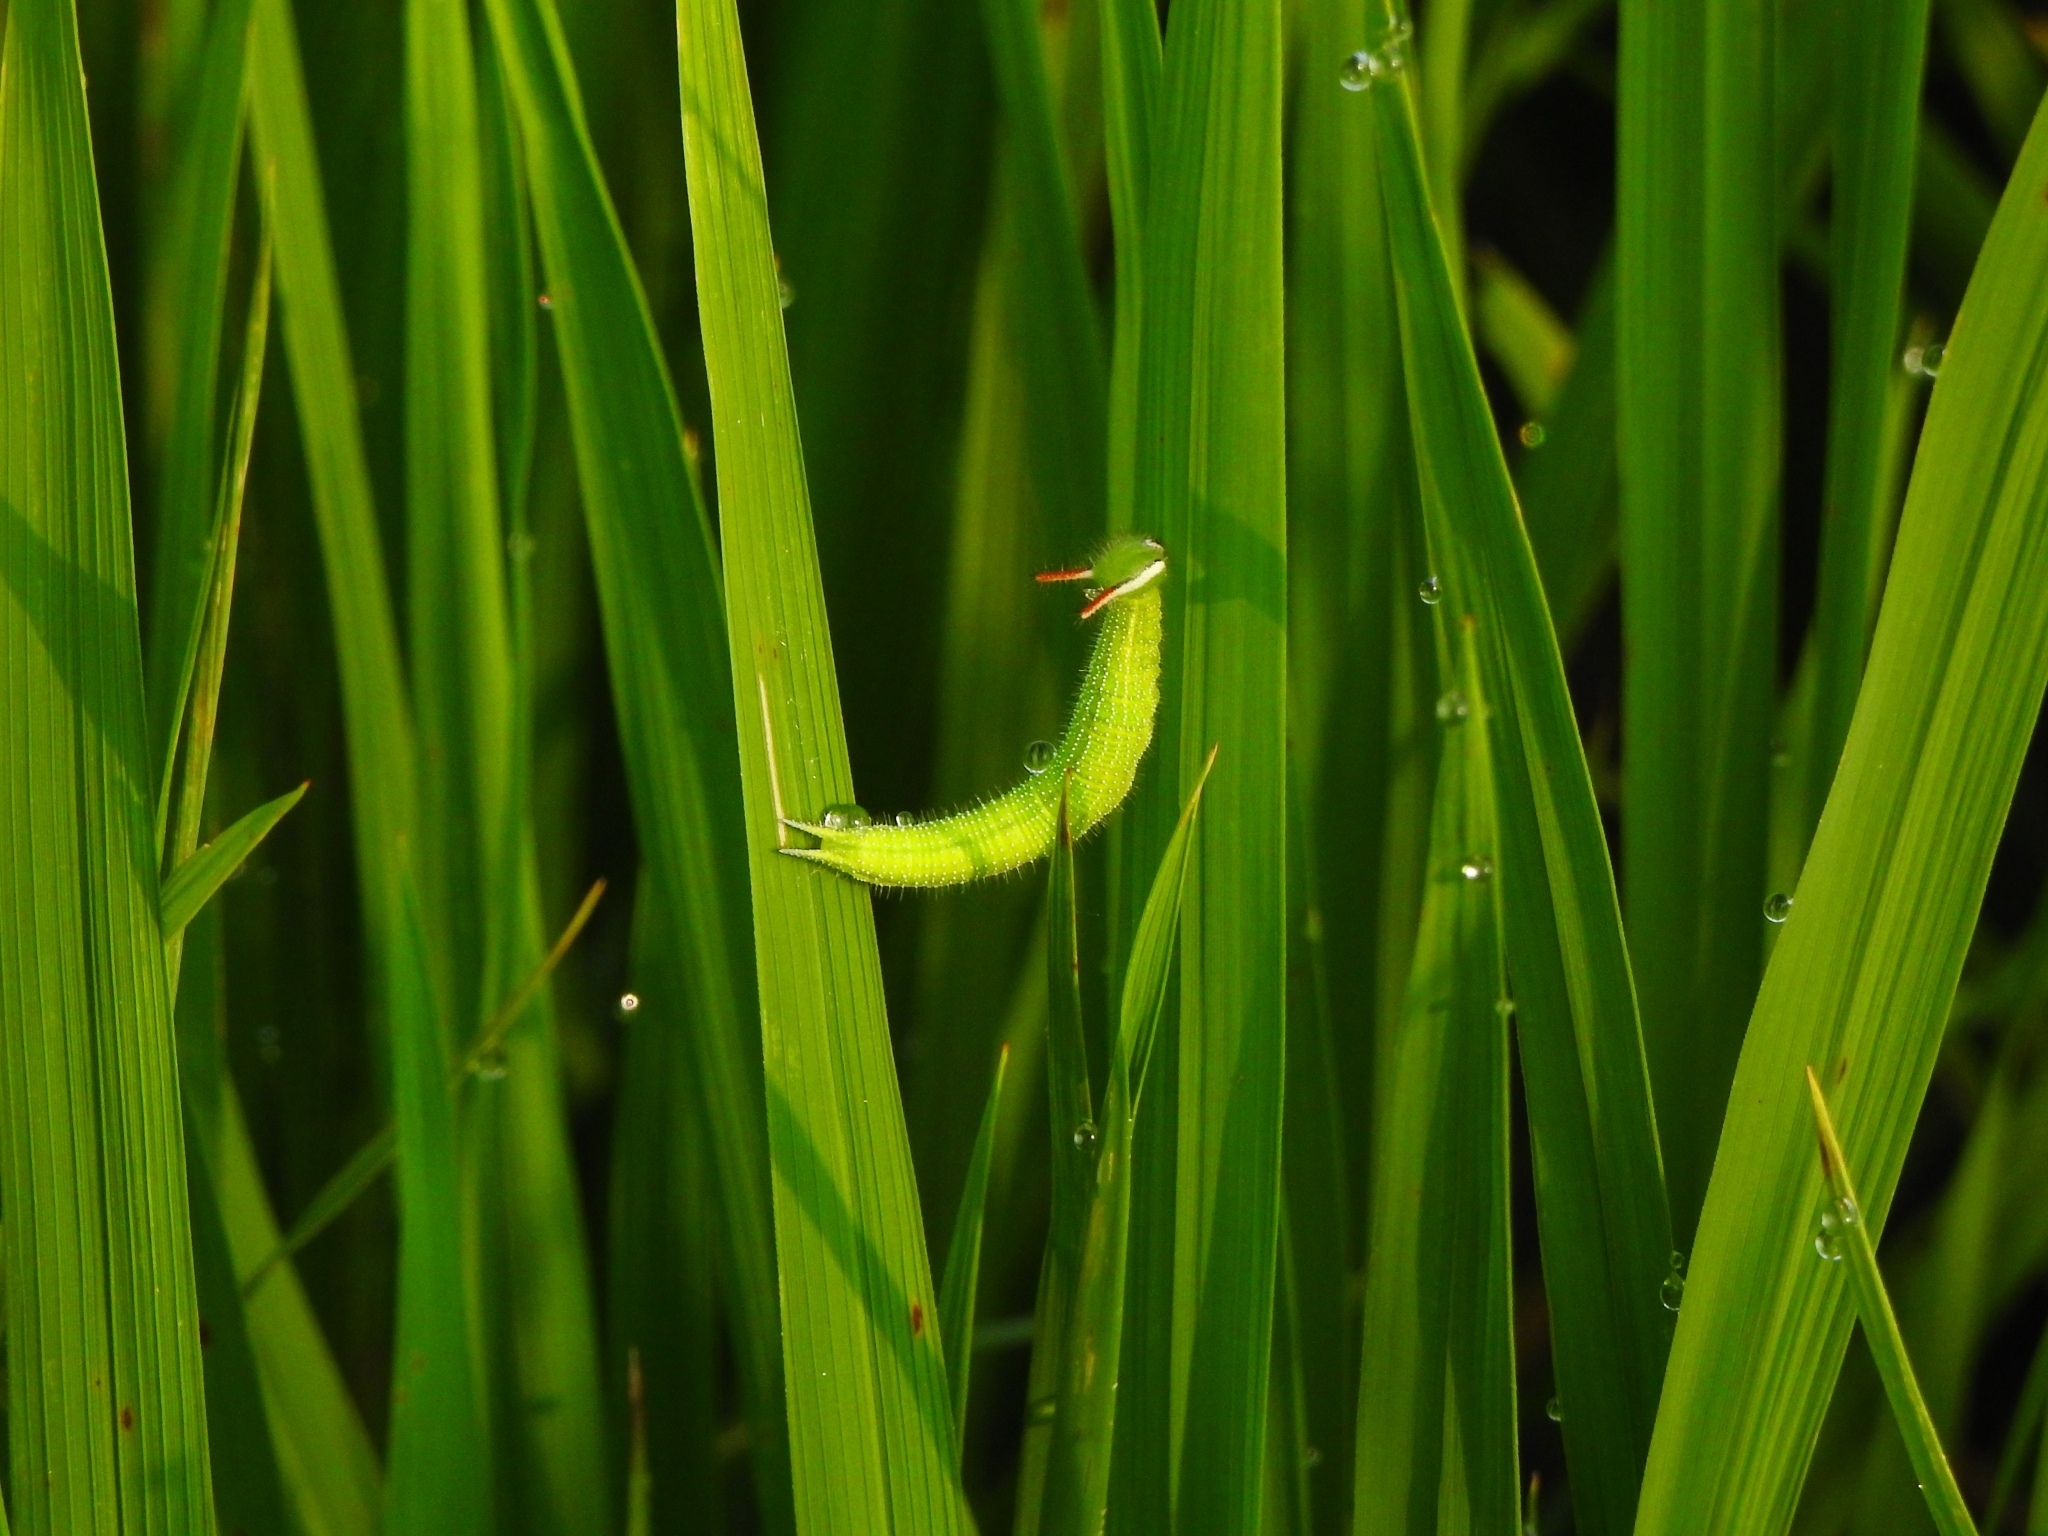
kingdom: Animalia
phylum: Arthropoda
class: Insecta
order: Lepidoptera
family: Nymphalidae
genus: Melanitis
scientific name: Melanitis leda
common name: Twilight brown
